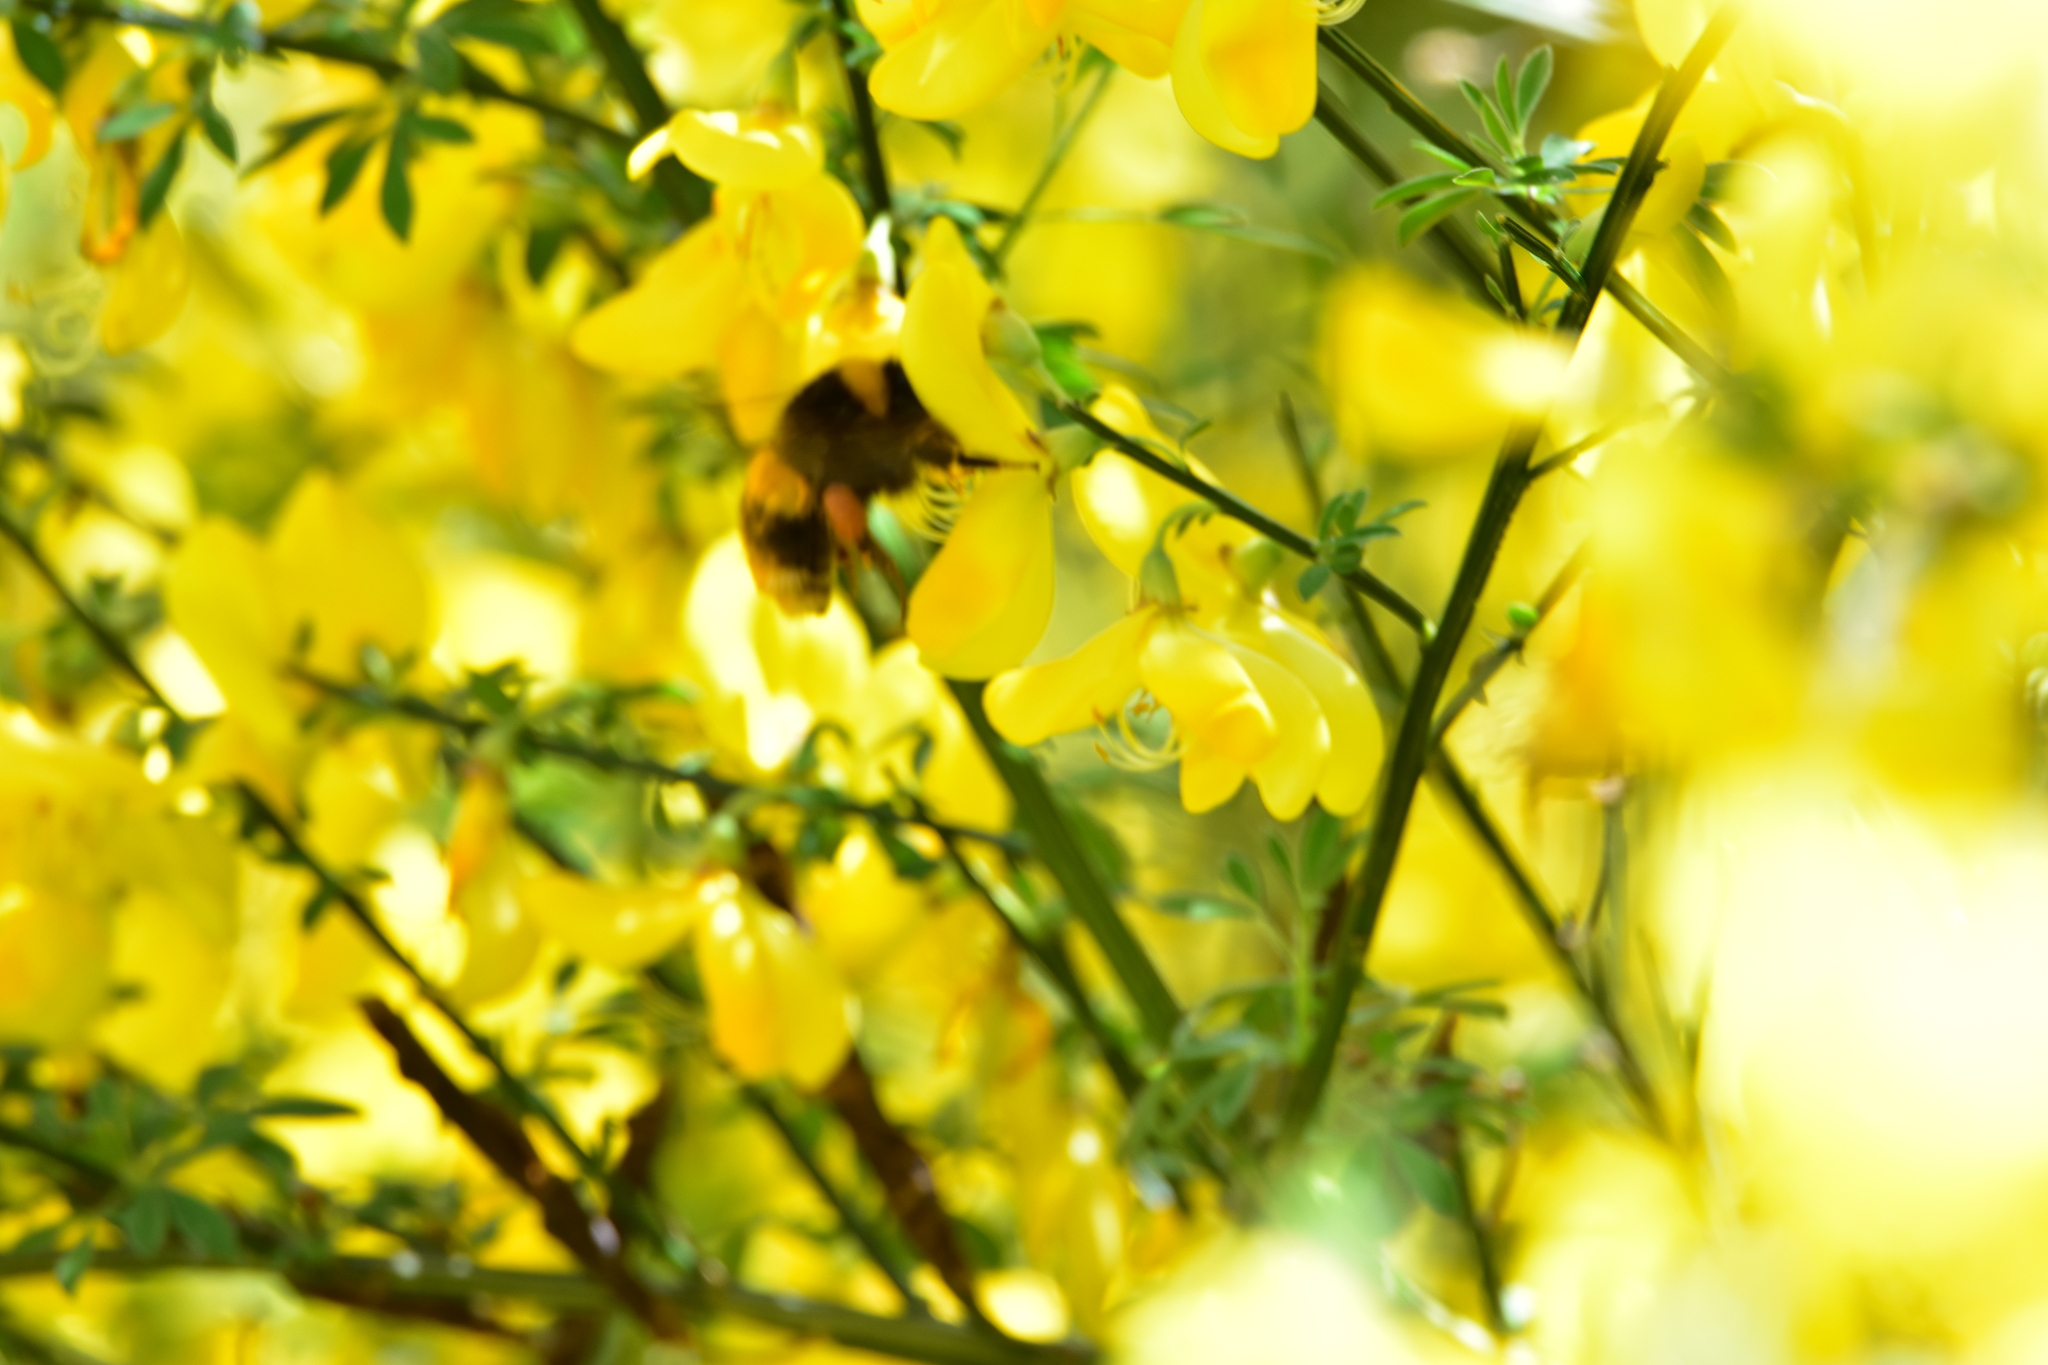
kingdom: Animalia
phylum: Arthropoda
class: Insecta
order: Hymenoptera
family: Apidae
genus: Bombus
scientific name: Bombus terrestris
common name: Buff-tailed bumblebee
